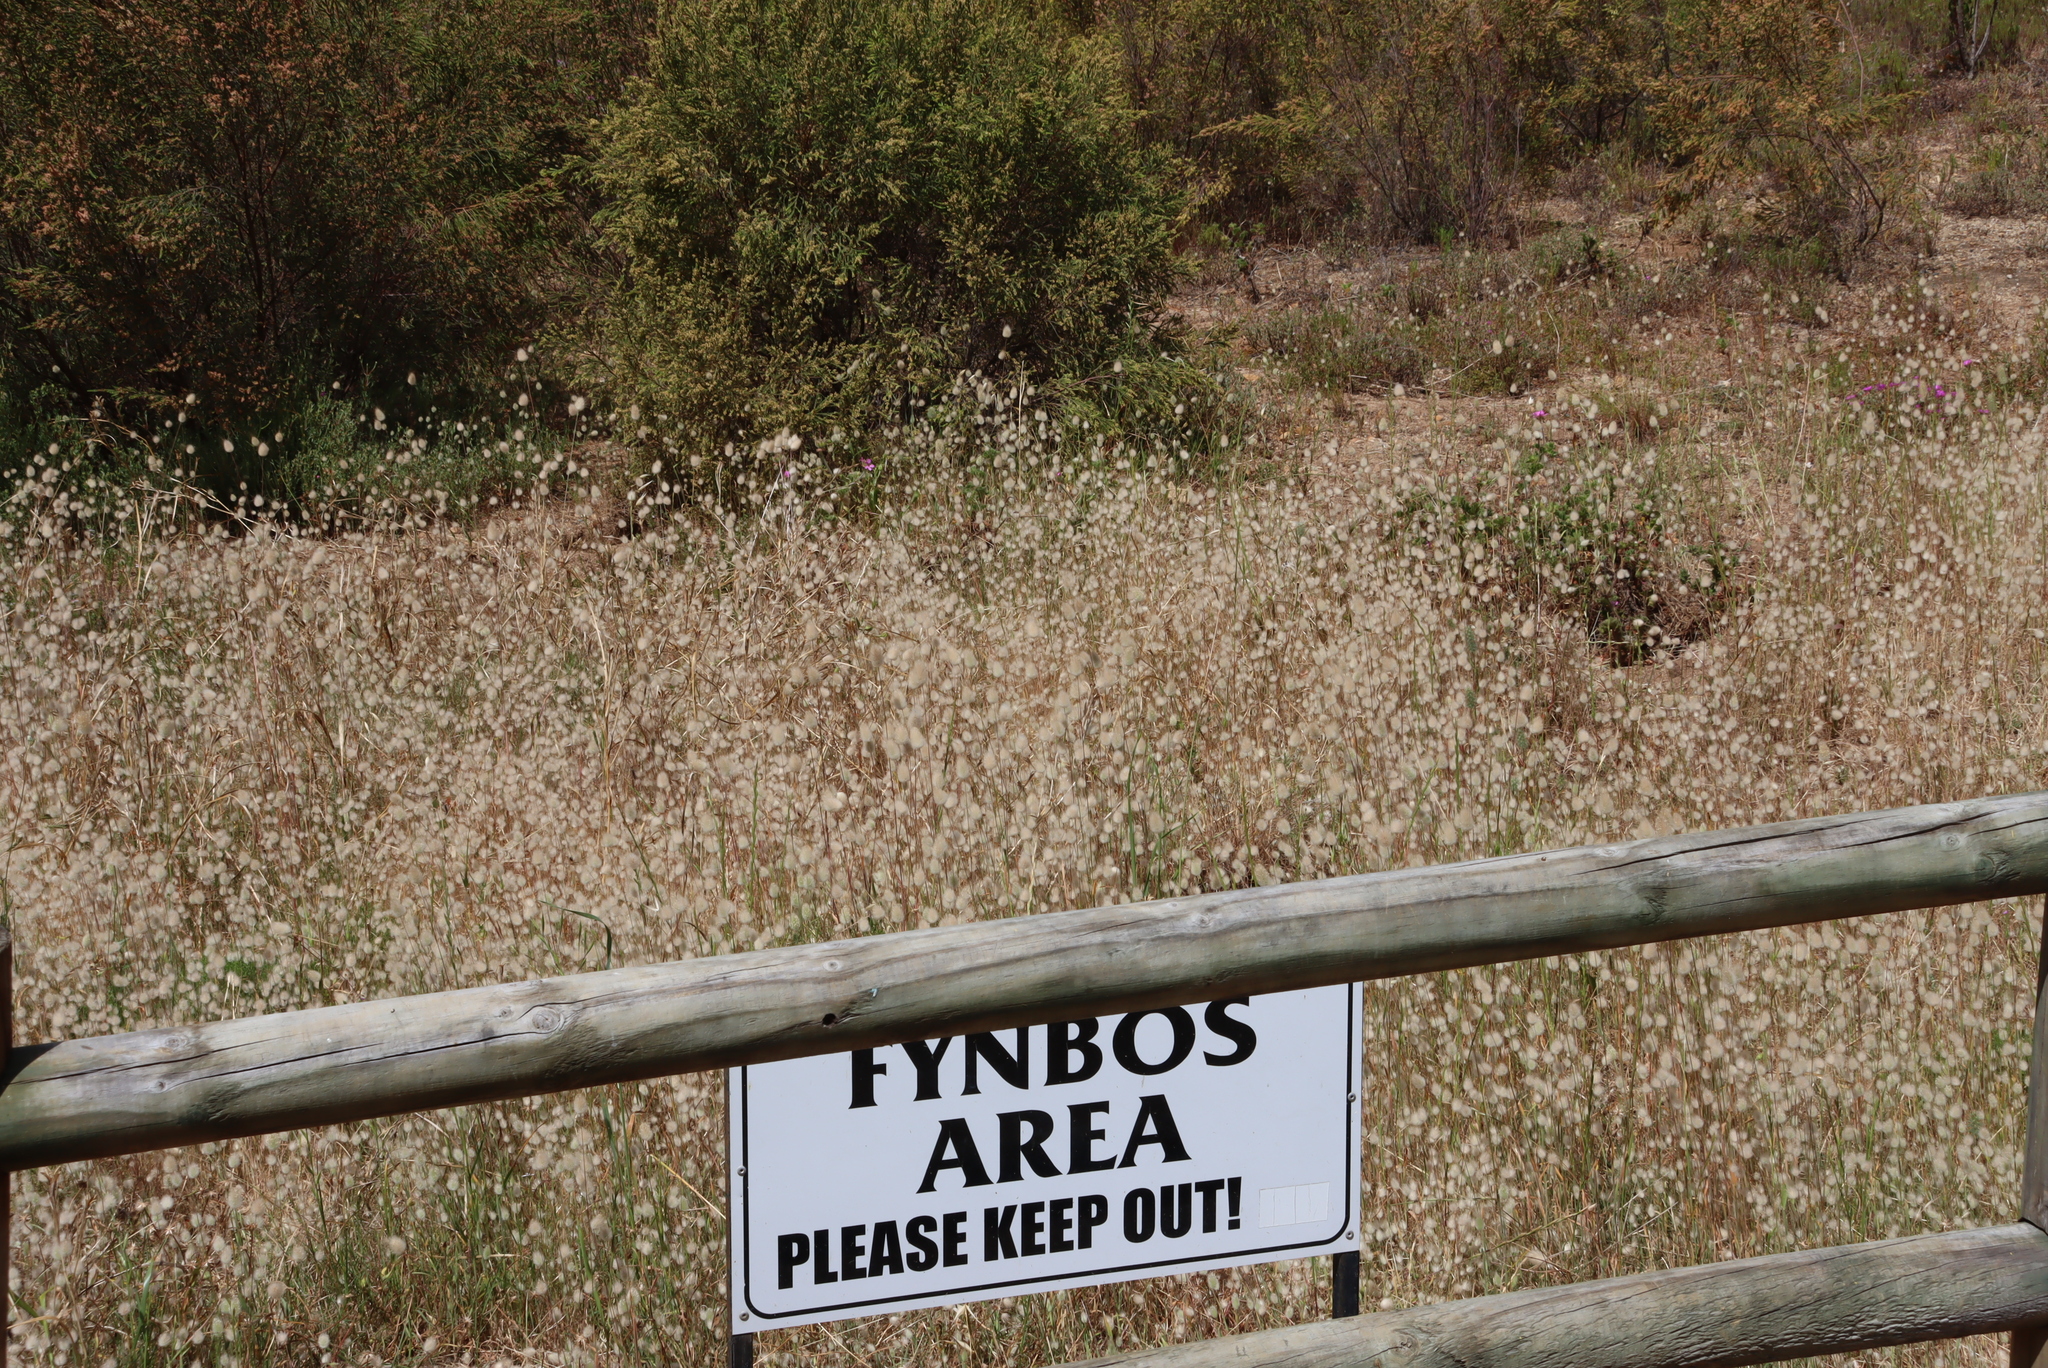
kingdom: Plantae
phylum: Tracheophyta
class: Liliopsida
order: Poales
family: Poaceae
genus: Lagurus
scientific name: Lagurus ovatus
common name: Hare's-tail
